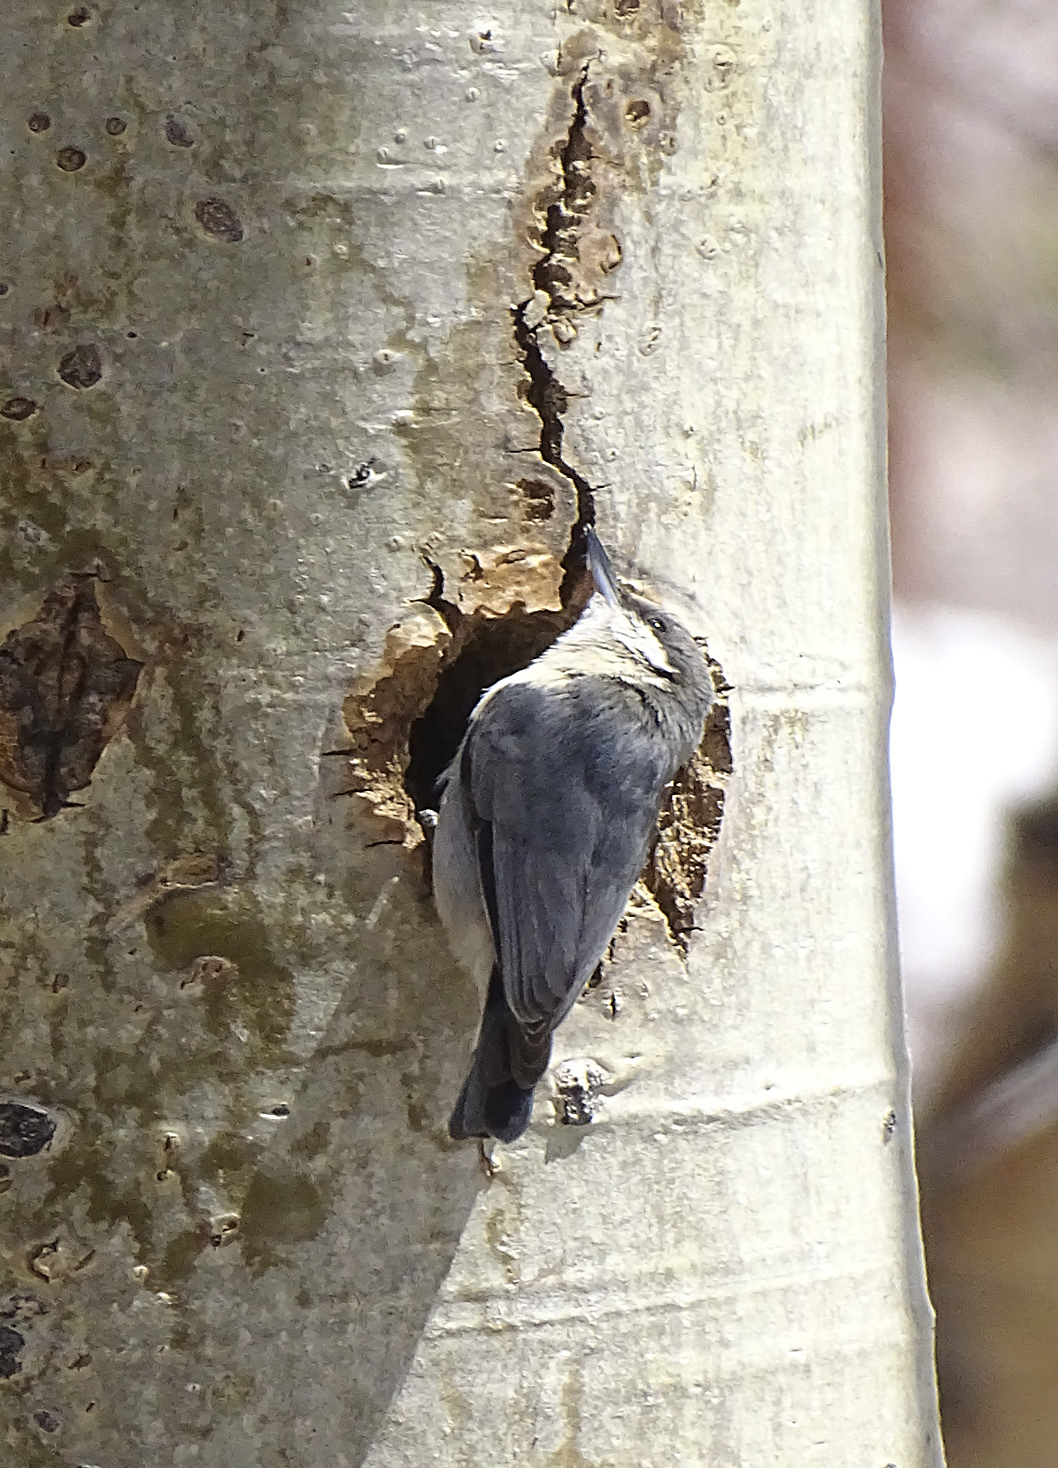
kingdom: Animalia
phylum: Chordata
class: Aves
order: Passeriformes
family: Sittidae
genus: Sitta
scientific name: Sitta pygmaea
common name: Pygmy nuthatch
